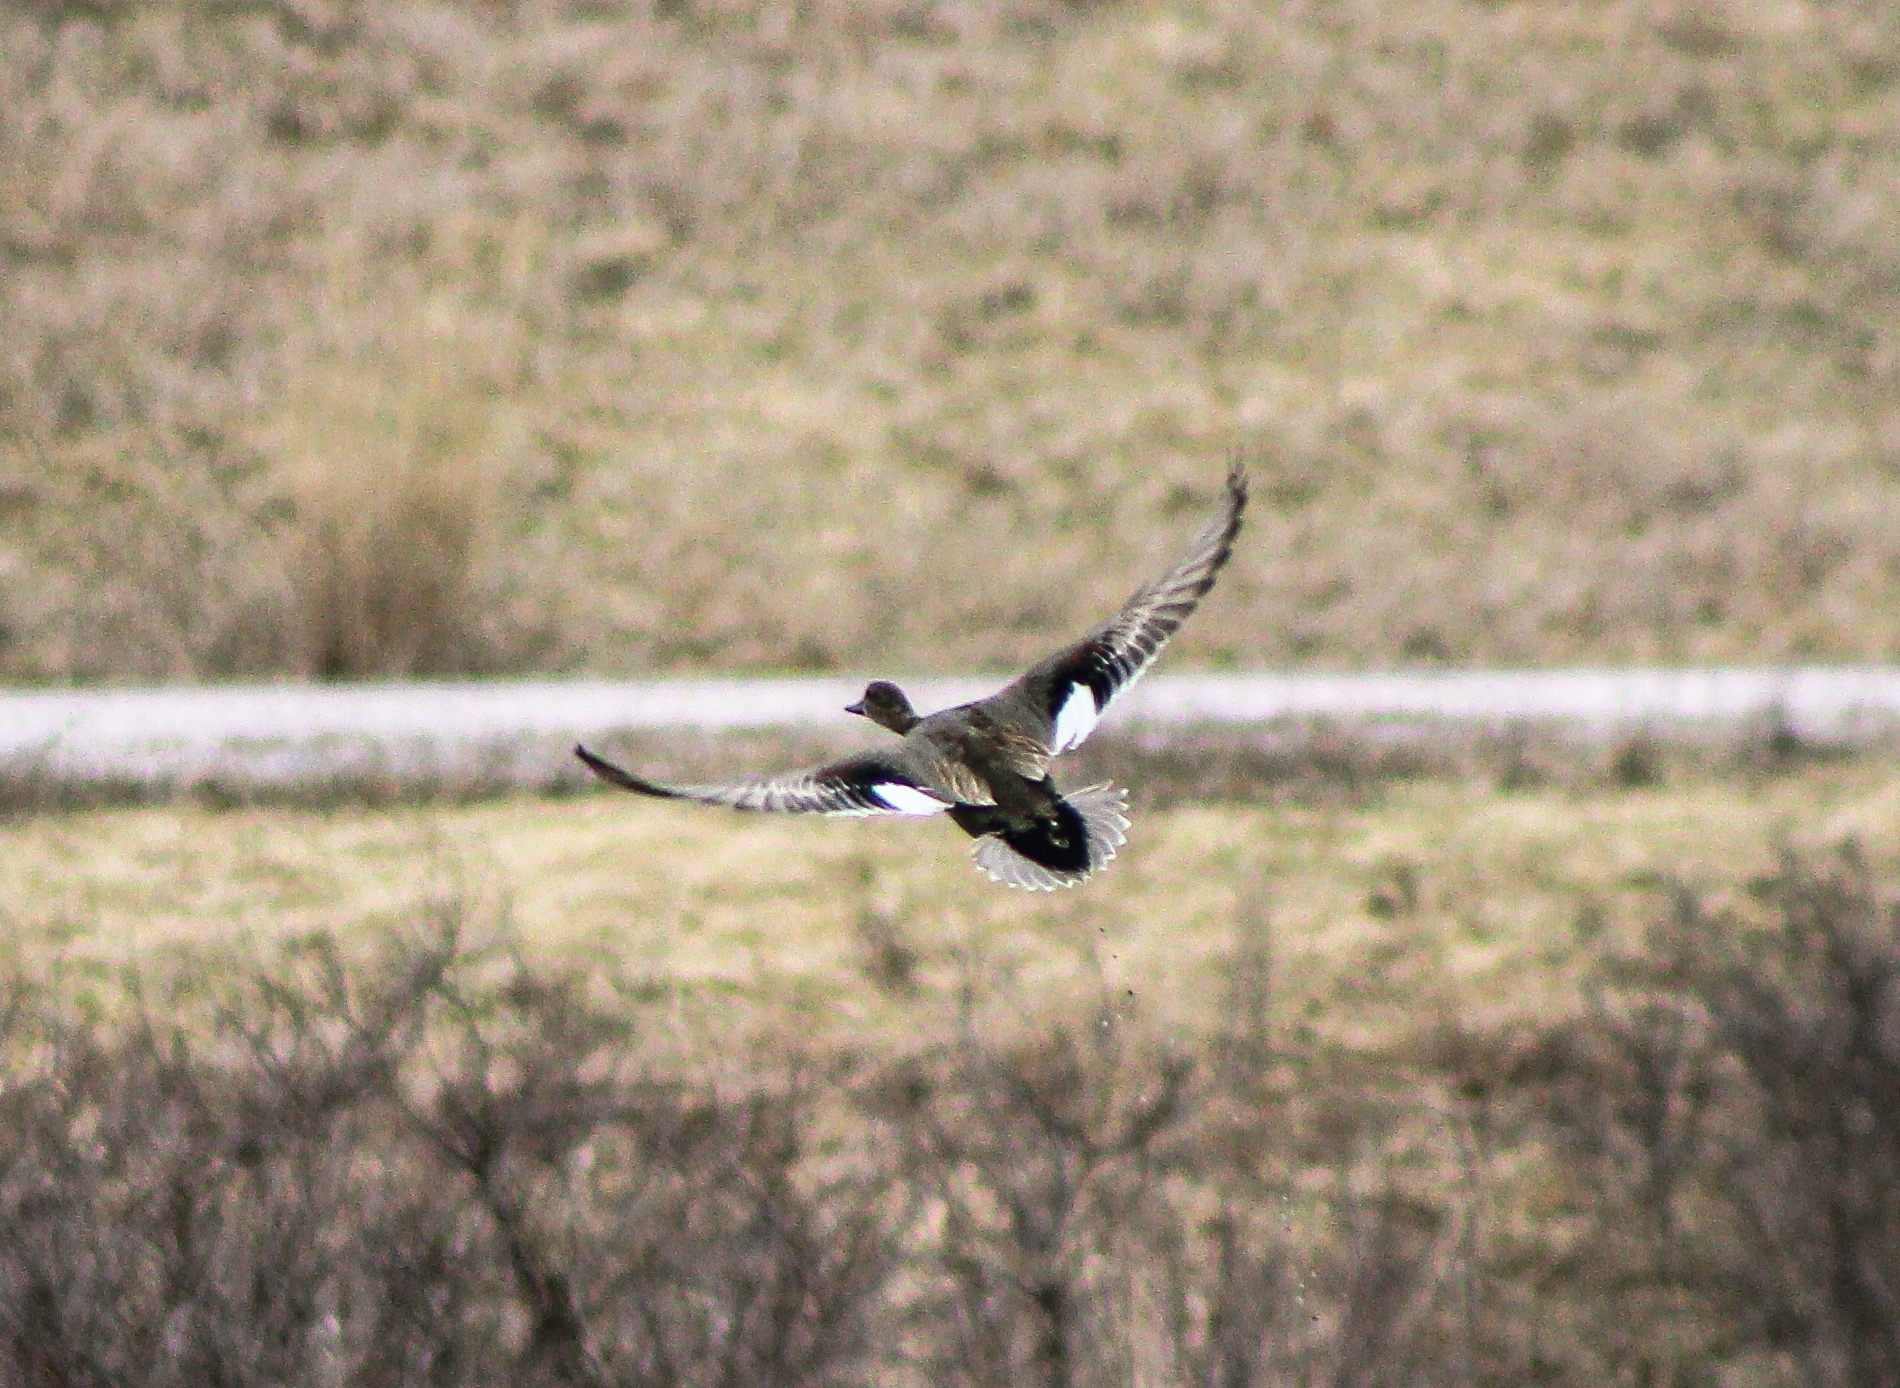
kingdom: Animalia
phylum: Chordata
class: Aves
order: Anseriformes
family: Anatidae
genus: Mareca
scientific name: Mareca strepera
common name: Gadwall
